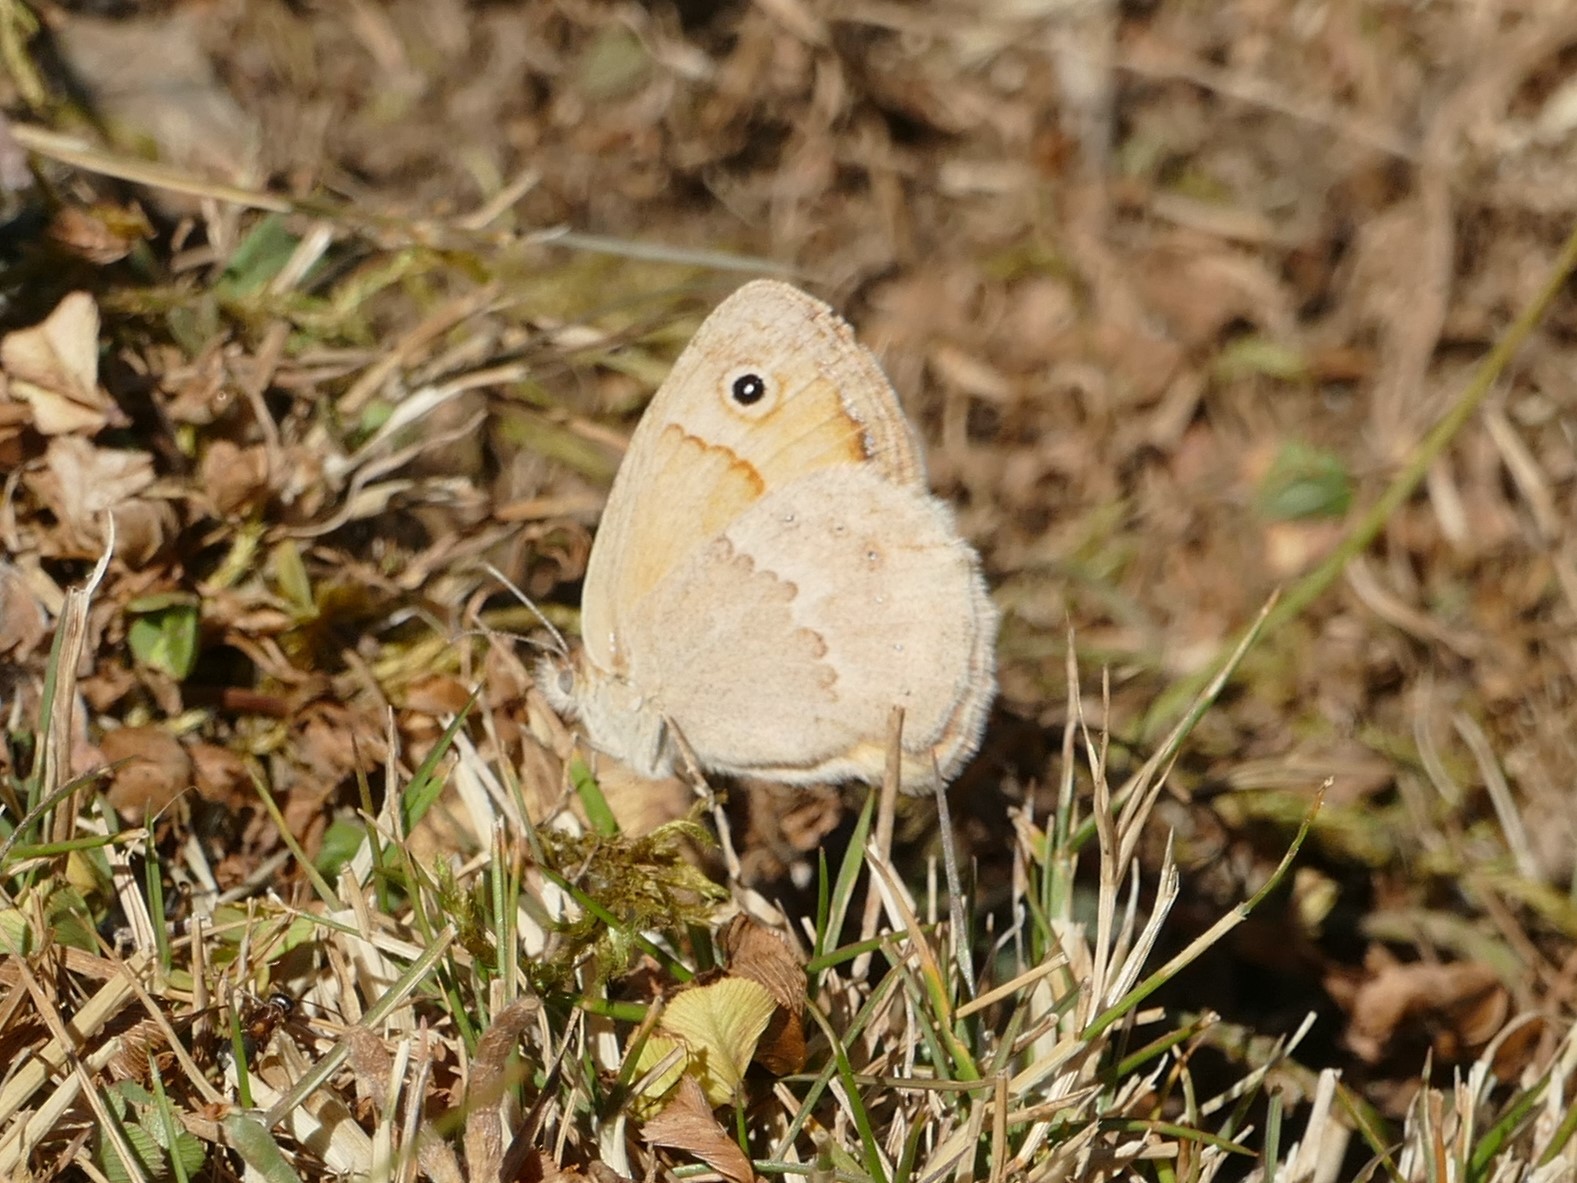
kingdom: Animalia
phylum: Arthropoda
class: Insecta
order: Lepidoptera
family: Nymphalidae
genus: Coenonympha
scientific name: Coenonympha pamphilus
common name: Small heath
